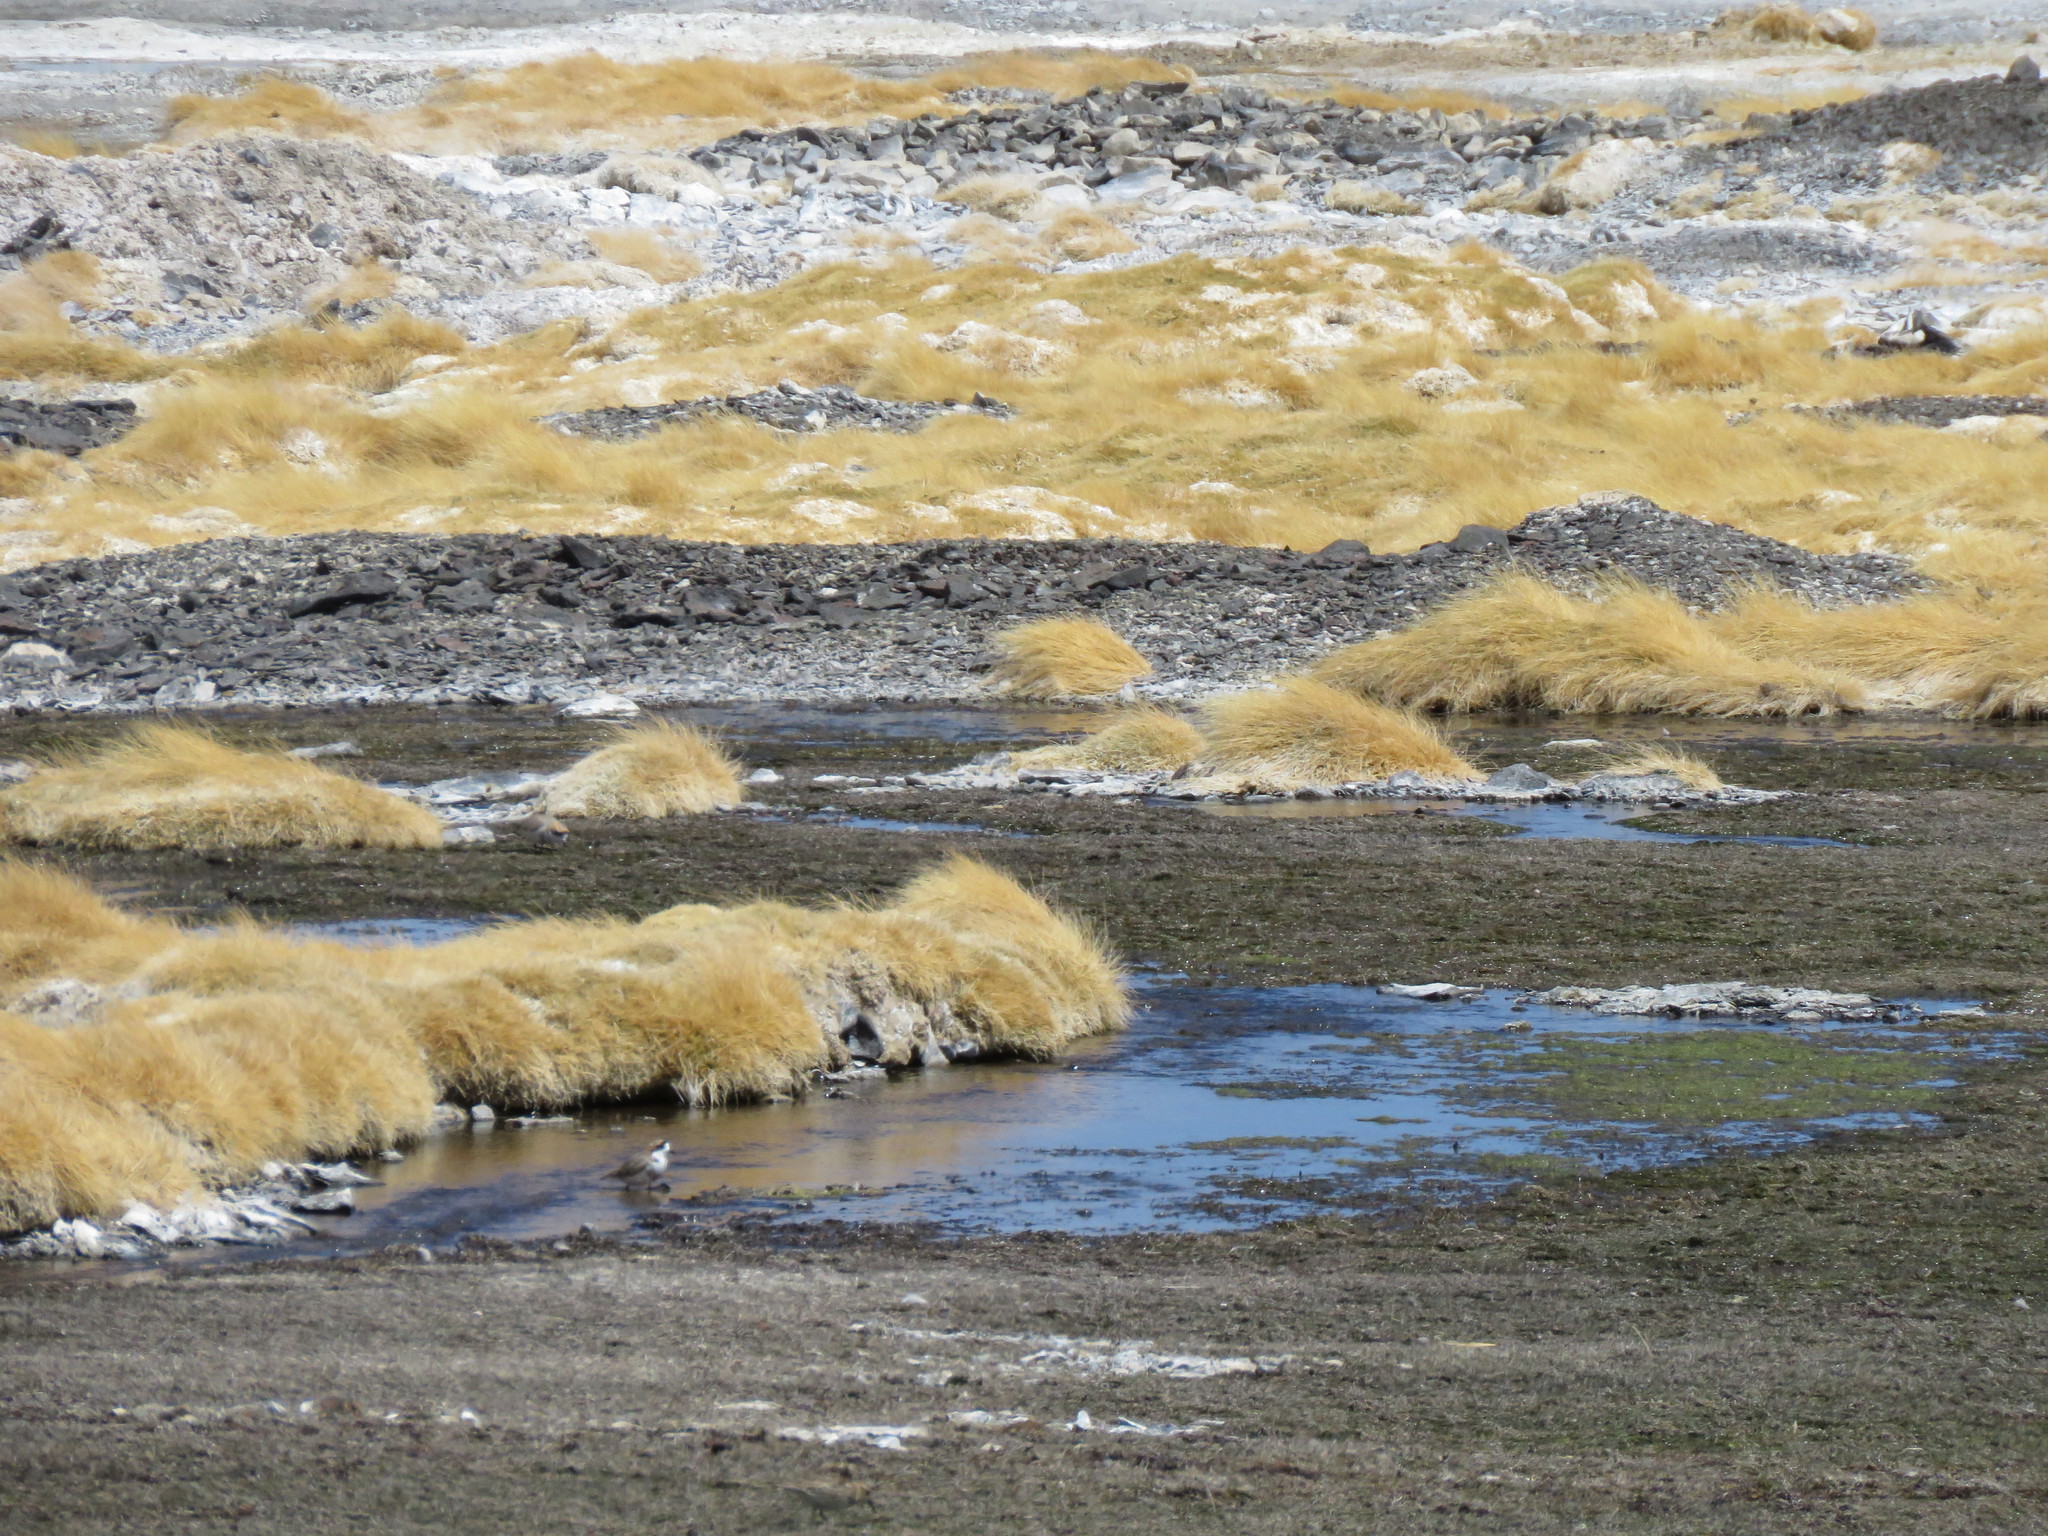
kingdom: Animalia
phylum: Chordata
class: Aves
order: Charadriiformes
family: Charadriidae
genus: Anarhynchus
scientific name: Anarhynchus
